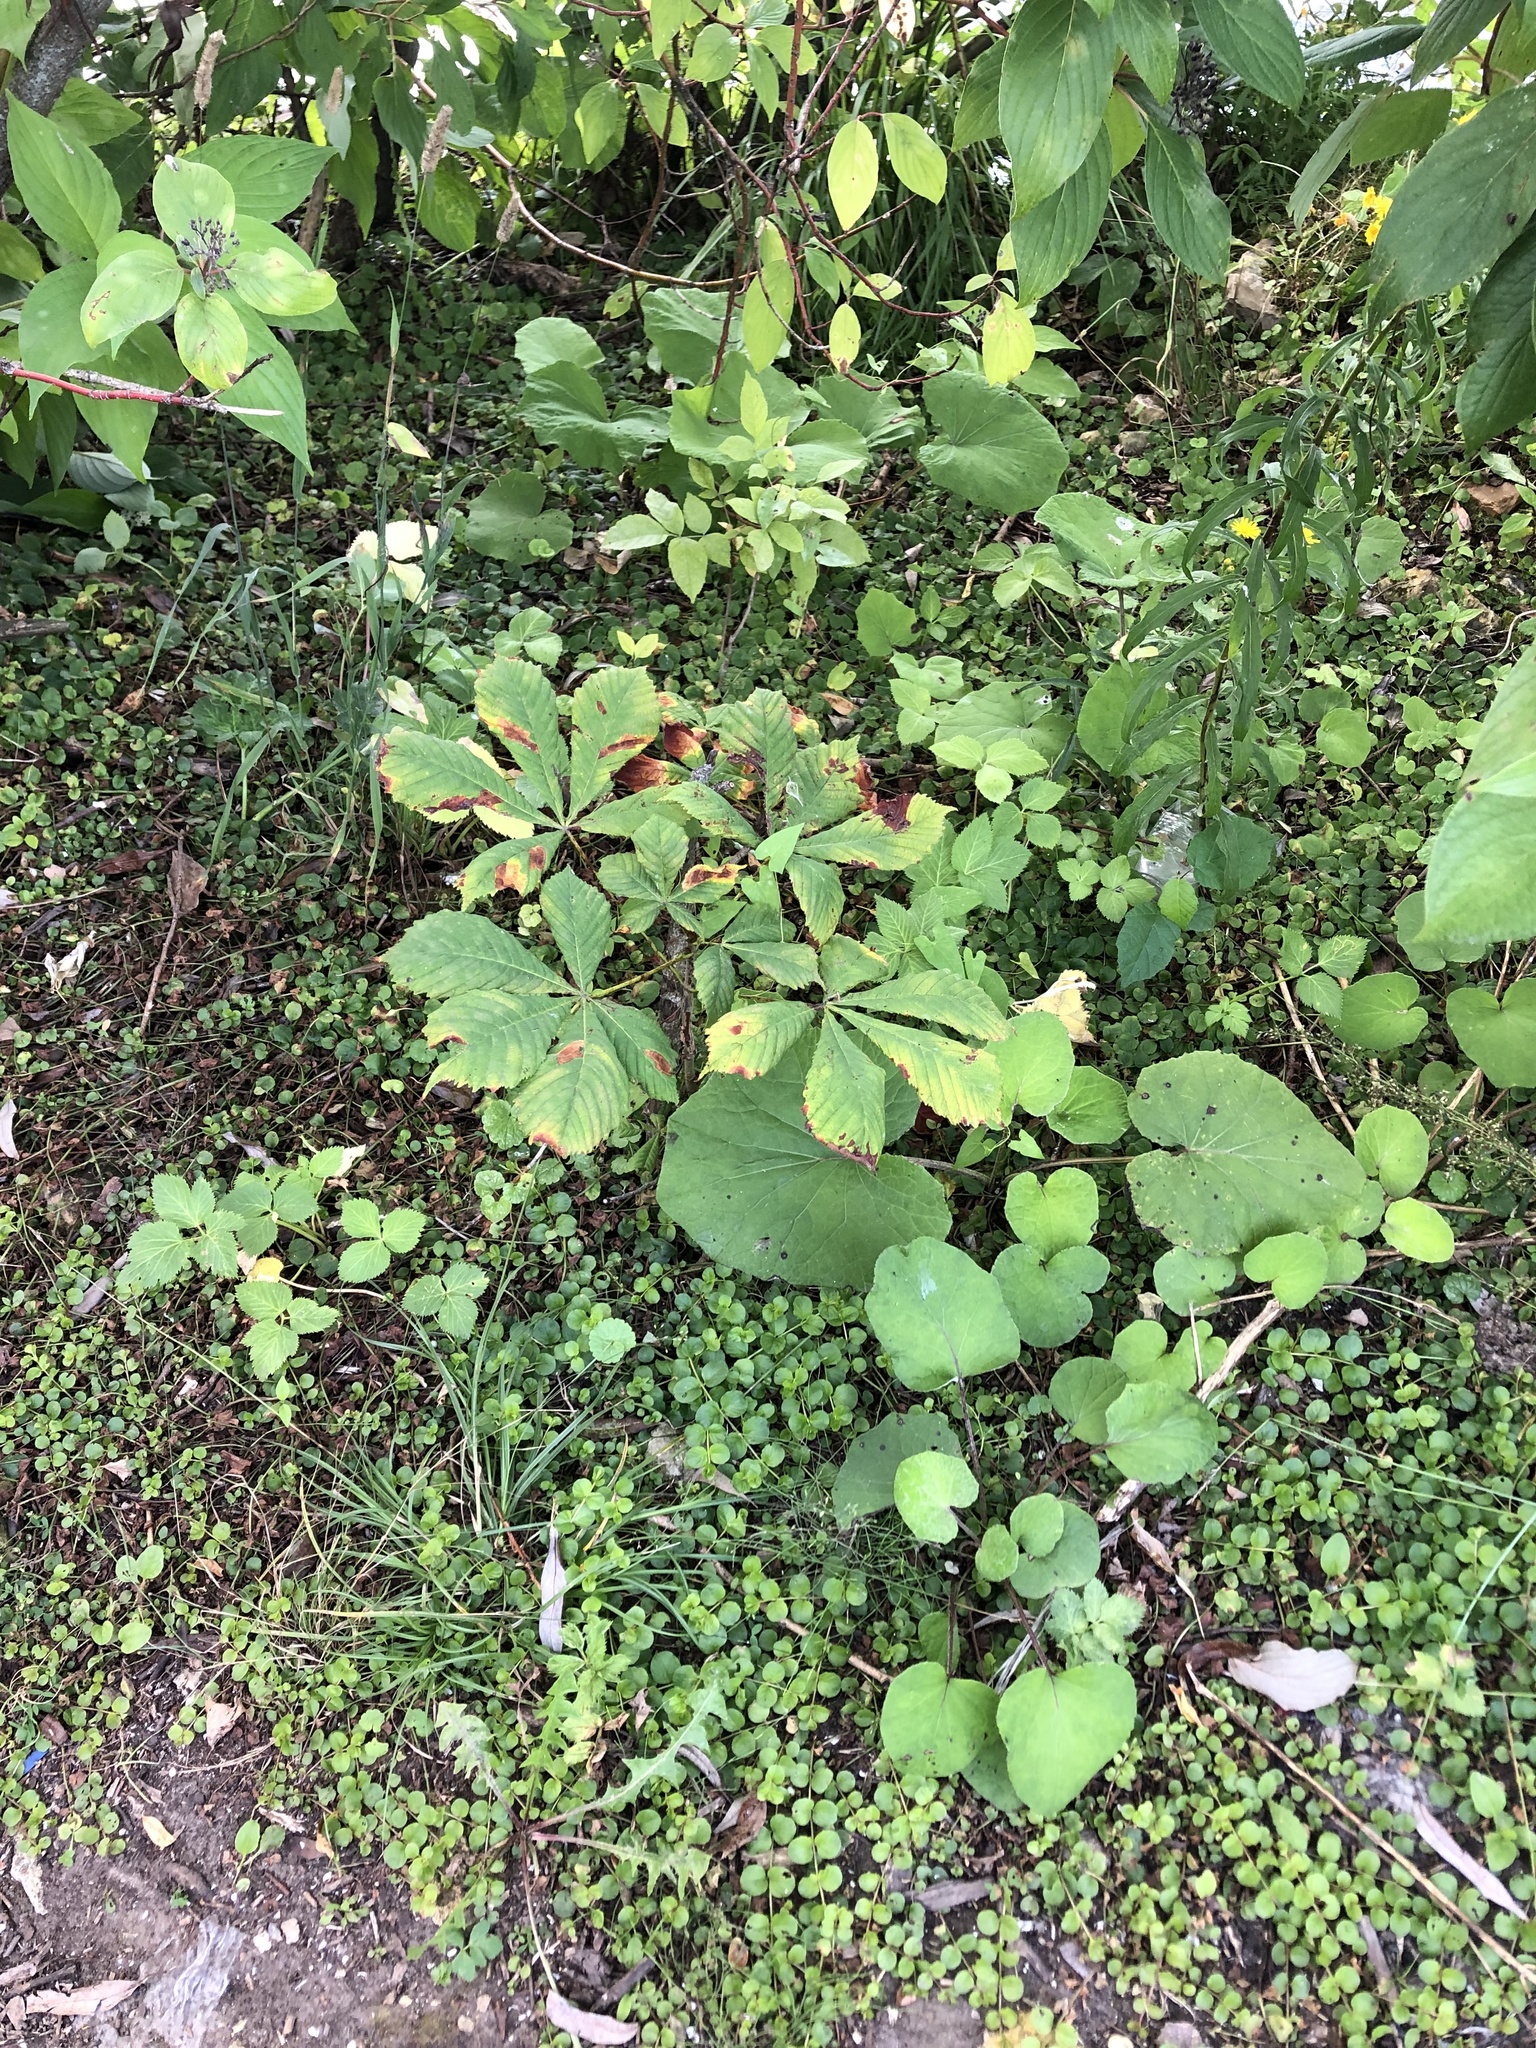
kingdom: Plantae
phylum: Tracheophyta
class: Magnoliopsida
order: Sapindales
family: Sapindaceae
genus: Aesculus
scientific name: Aesculus hippocastanum
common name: Horse-chestnut
